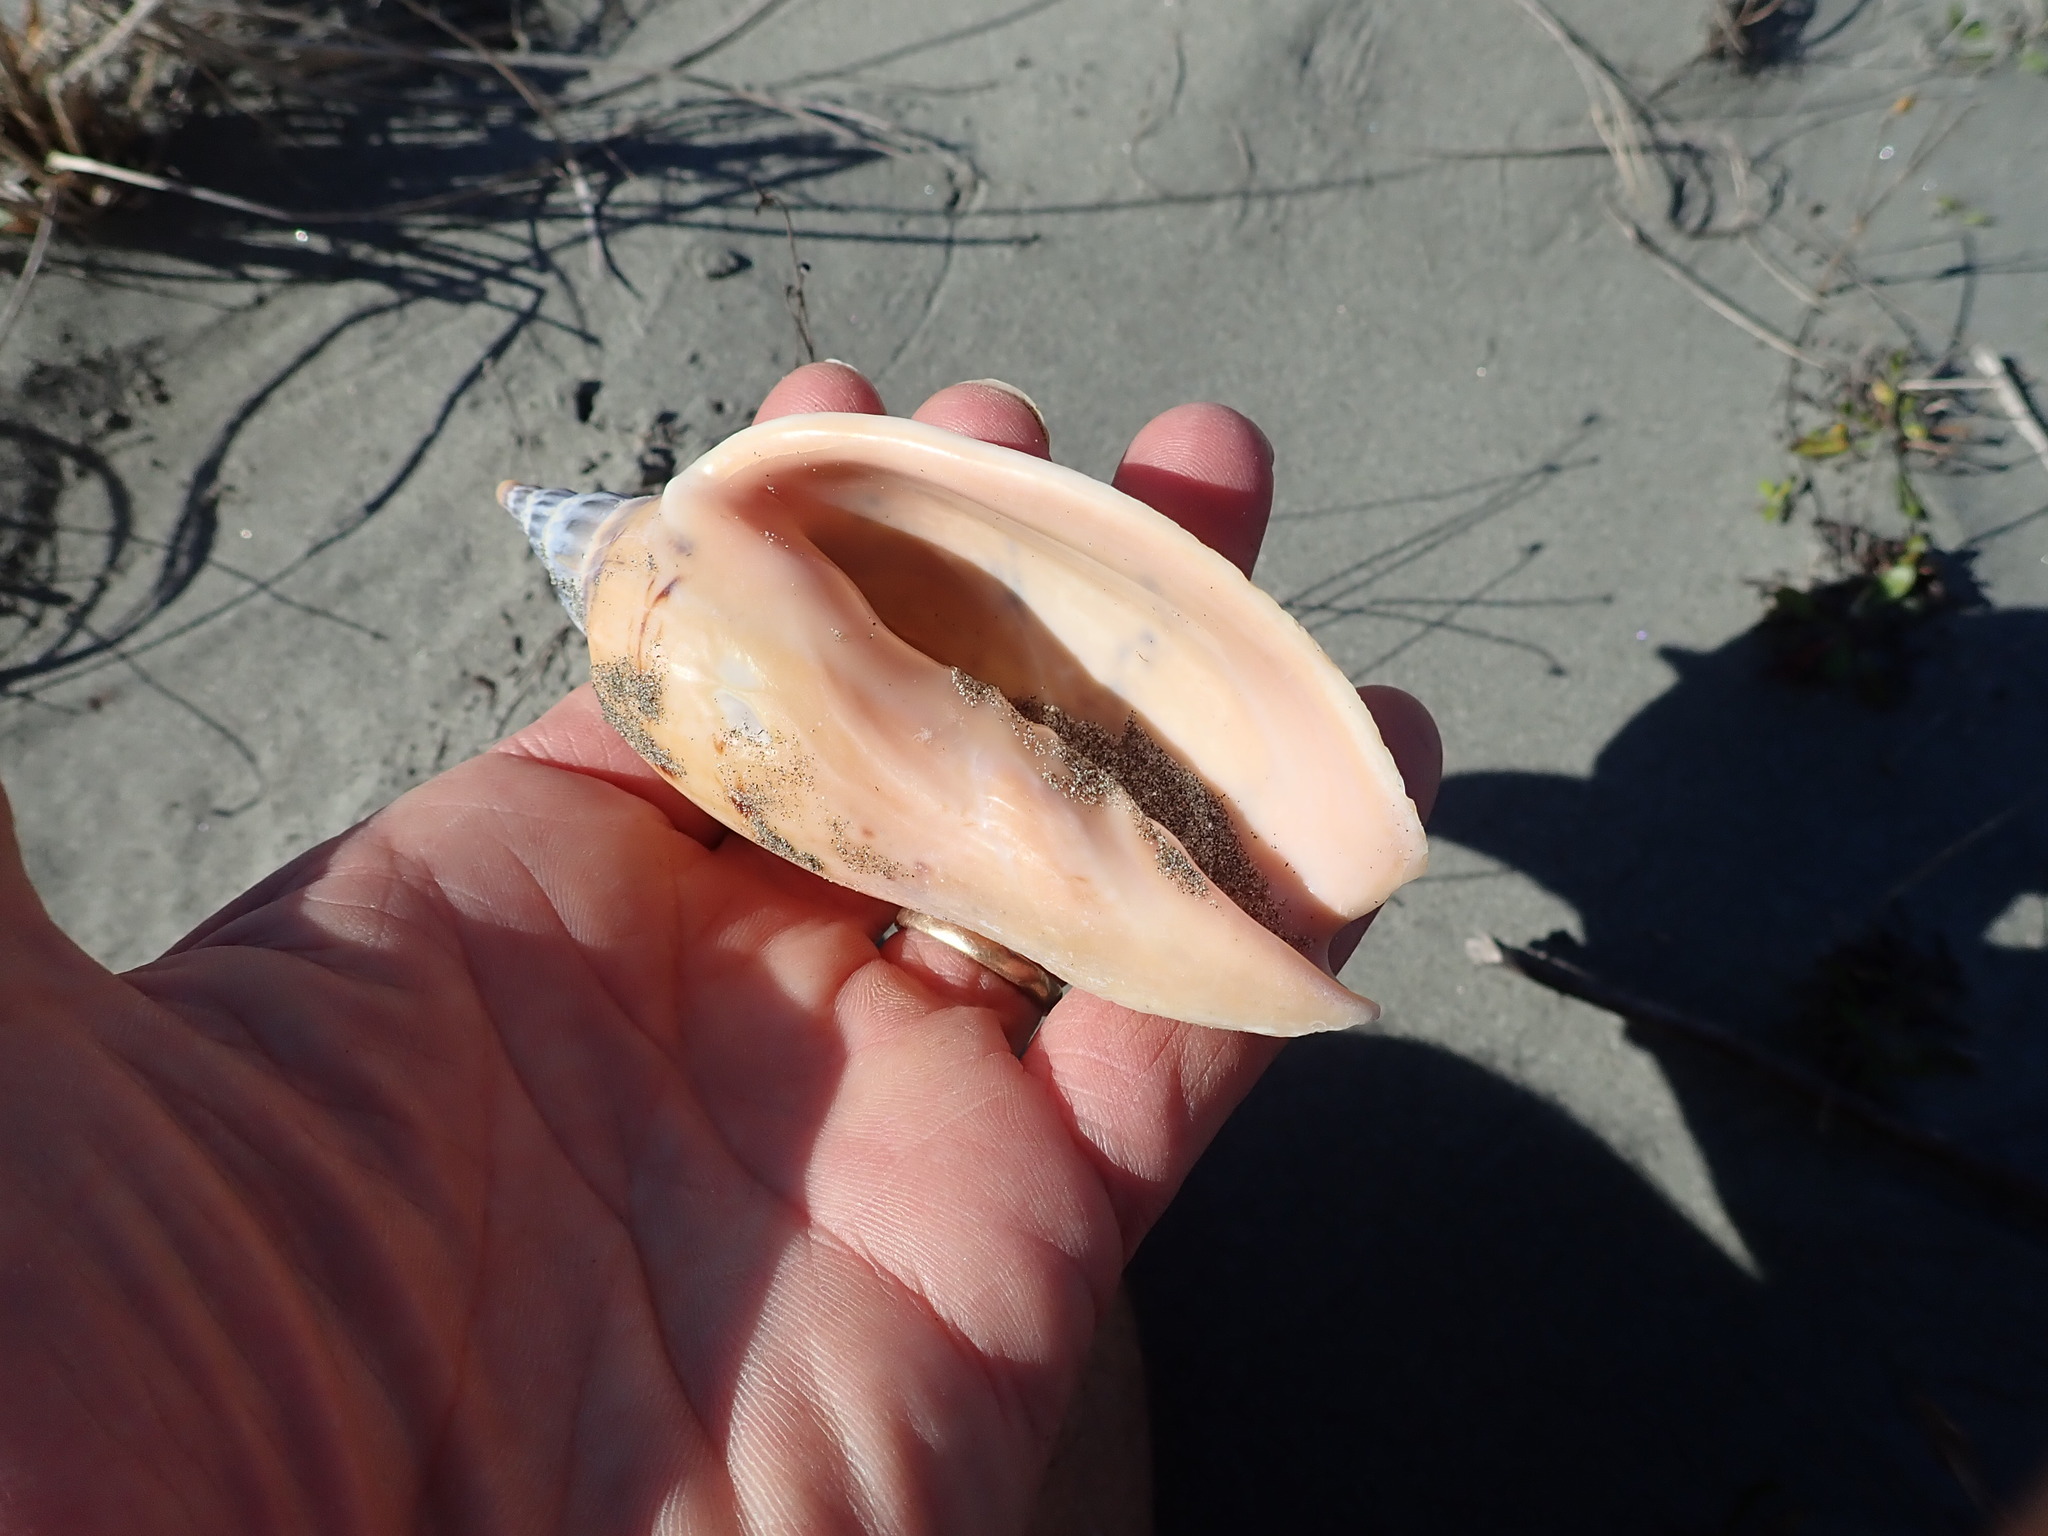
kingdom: Animalia
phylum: Mollusca
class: Gastropoda
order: Neogastropoda
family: Volutidae
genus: Alcithoe
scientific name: Alcithoe arabica
